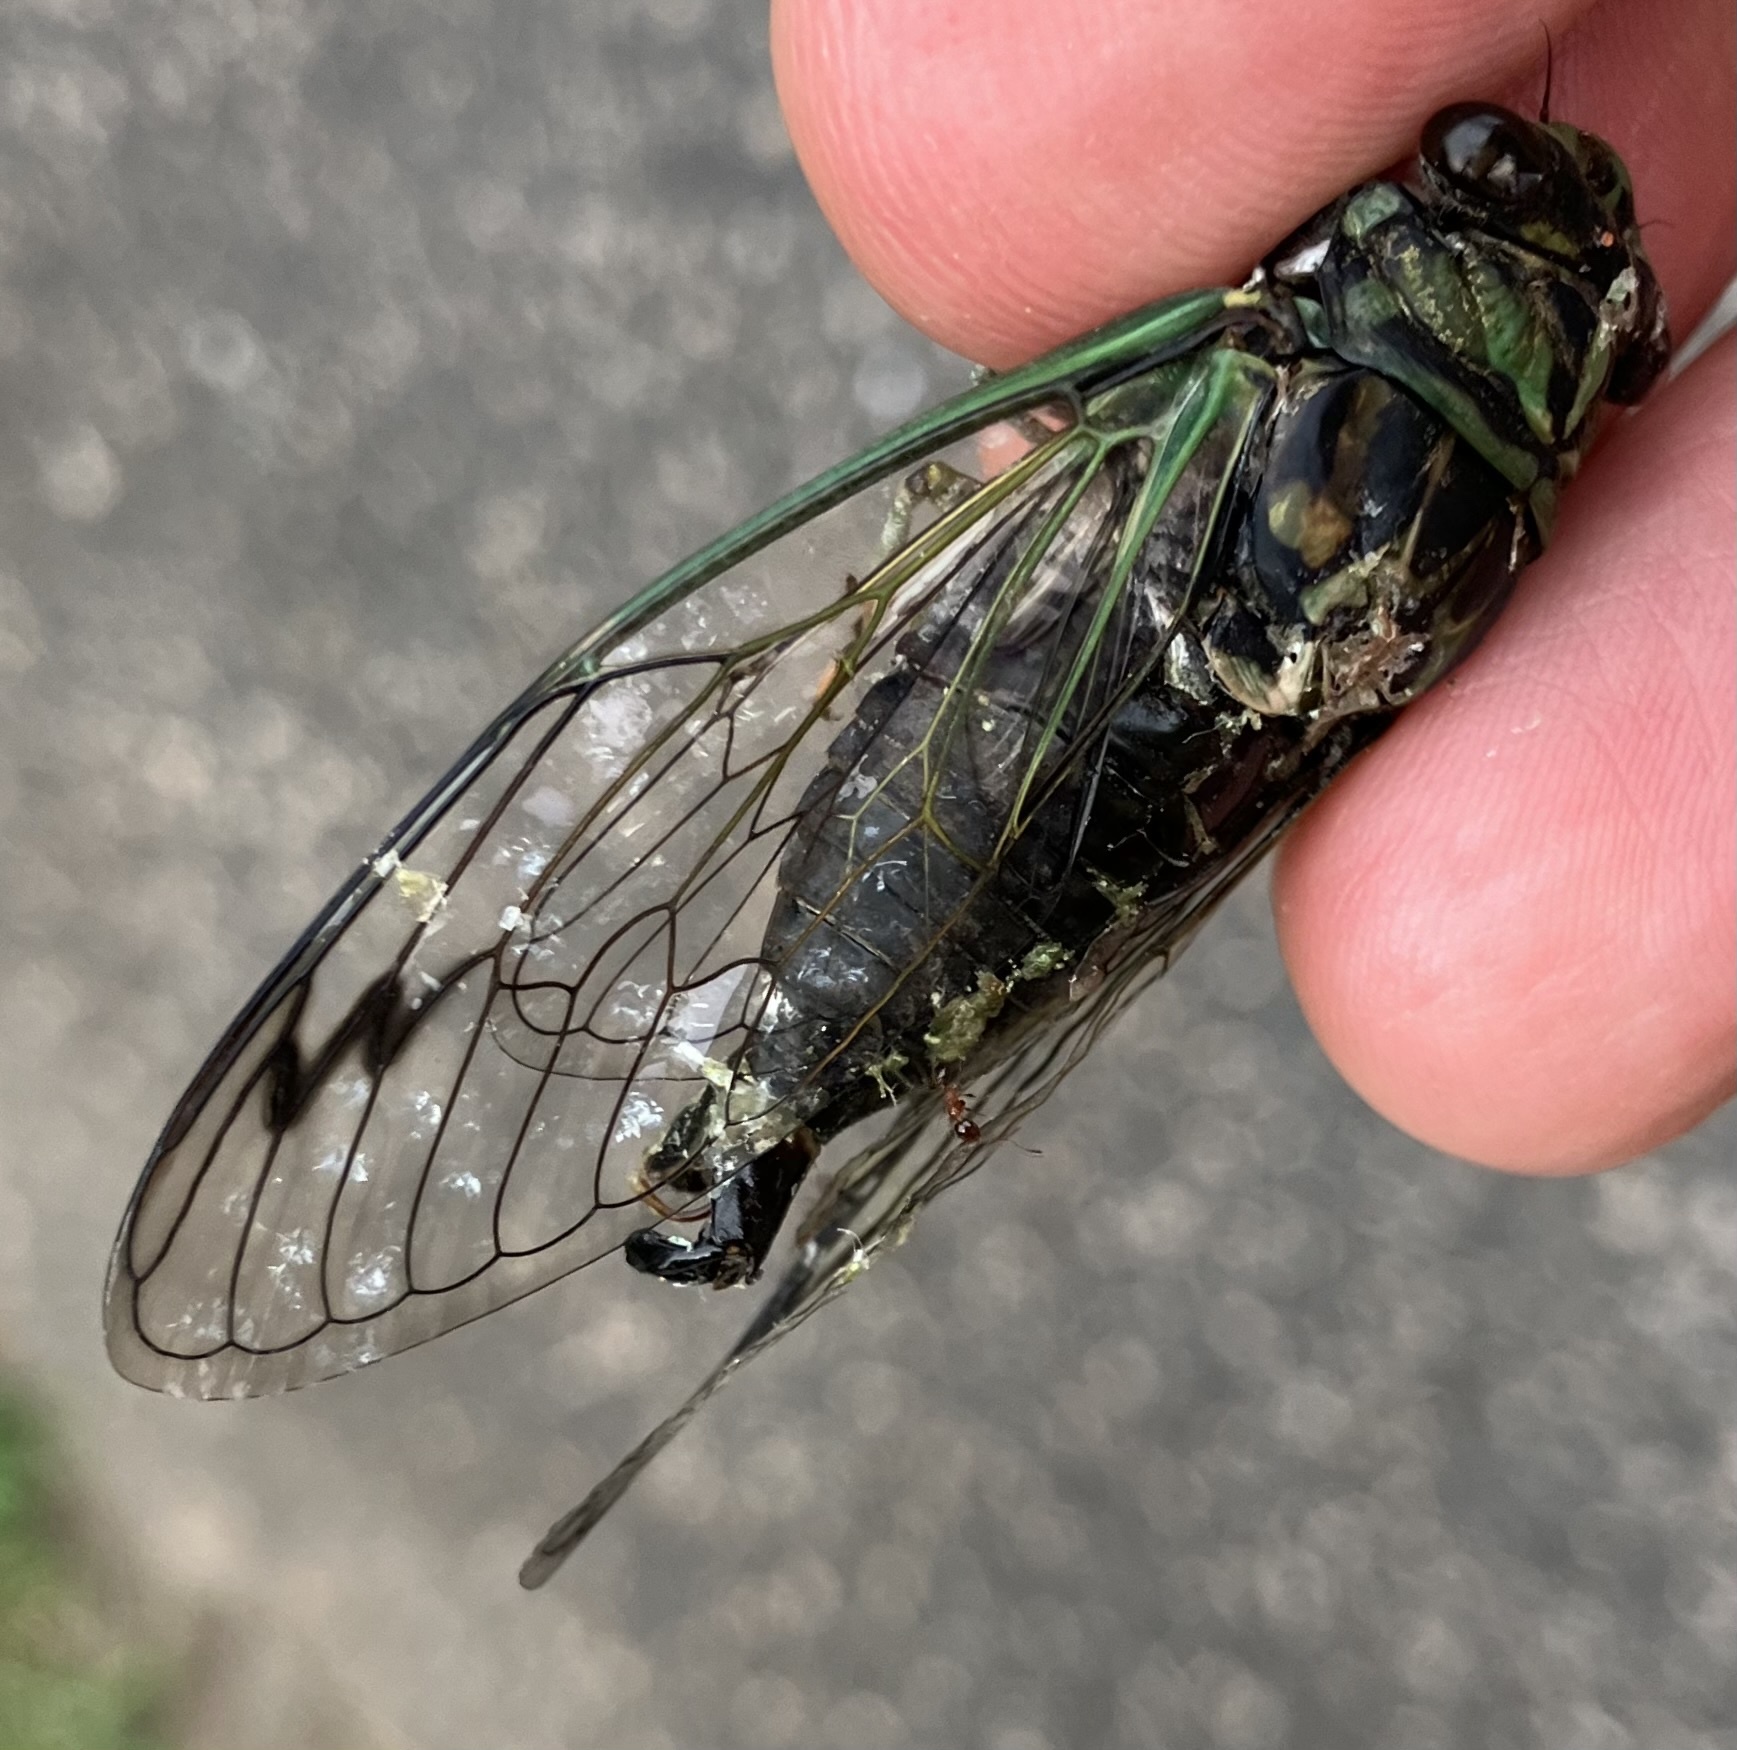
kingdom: Animalia
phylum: Arthropoda
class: Insecta
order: Hemiptera
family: Cicadidae
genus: Neotibicen
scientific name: Neotibicen robinsonianus
